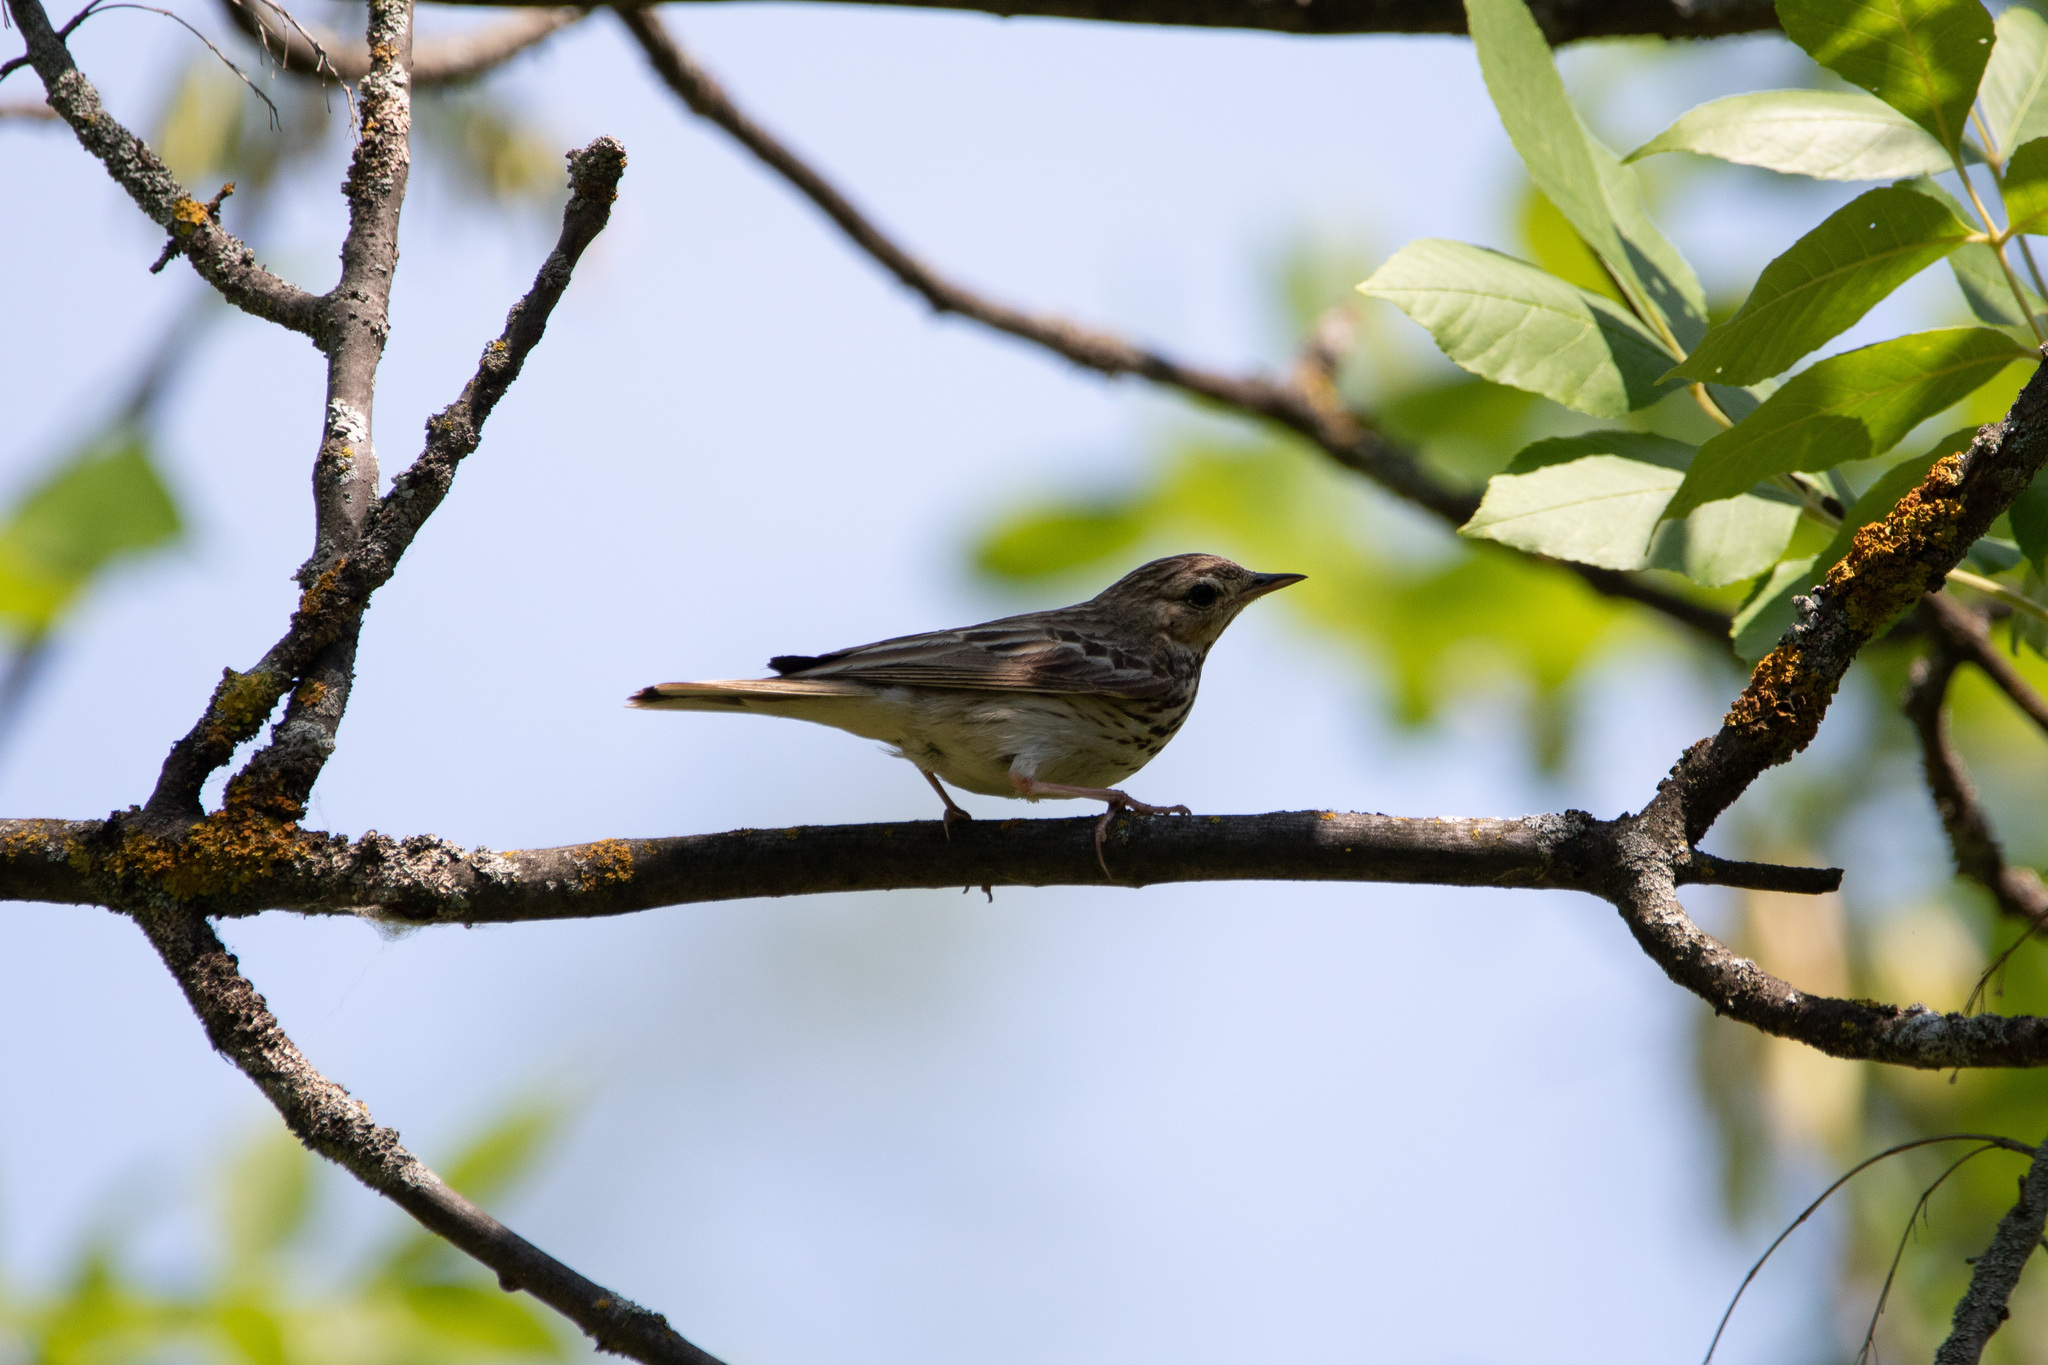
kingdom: Animalia
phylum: Chordata
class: Aves
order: Passeriformes
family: Motacillidae
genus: Anthus
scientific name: Anthus trivialis
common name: Tree pipit
